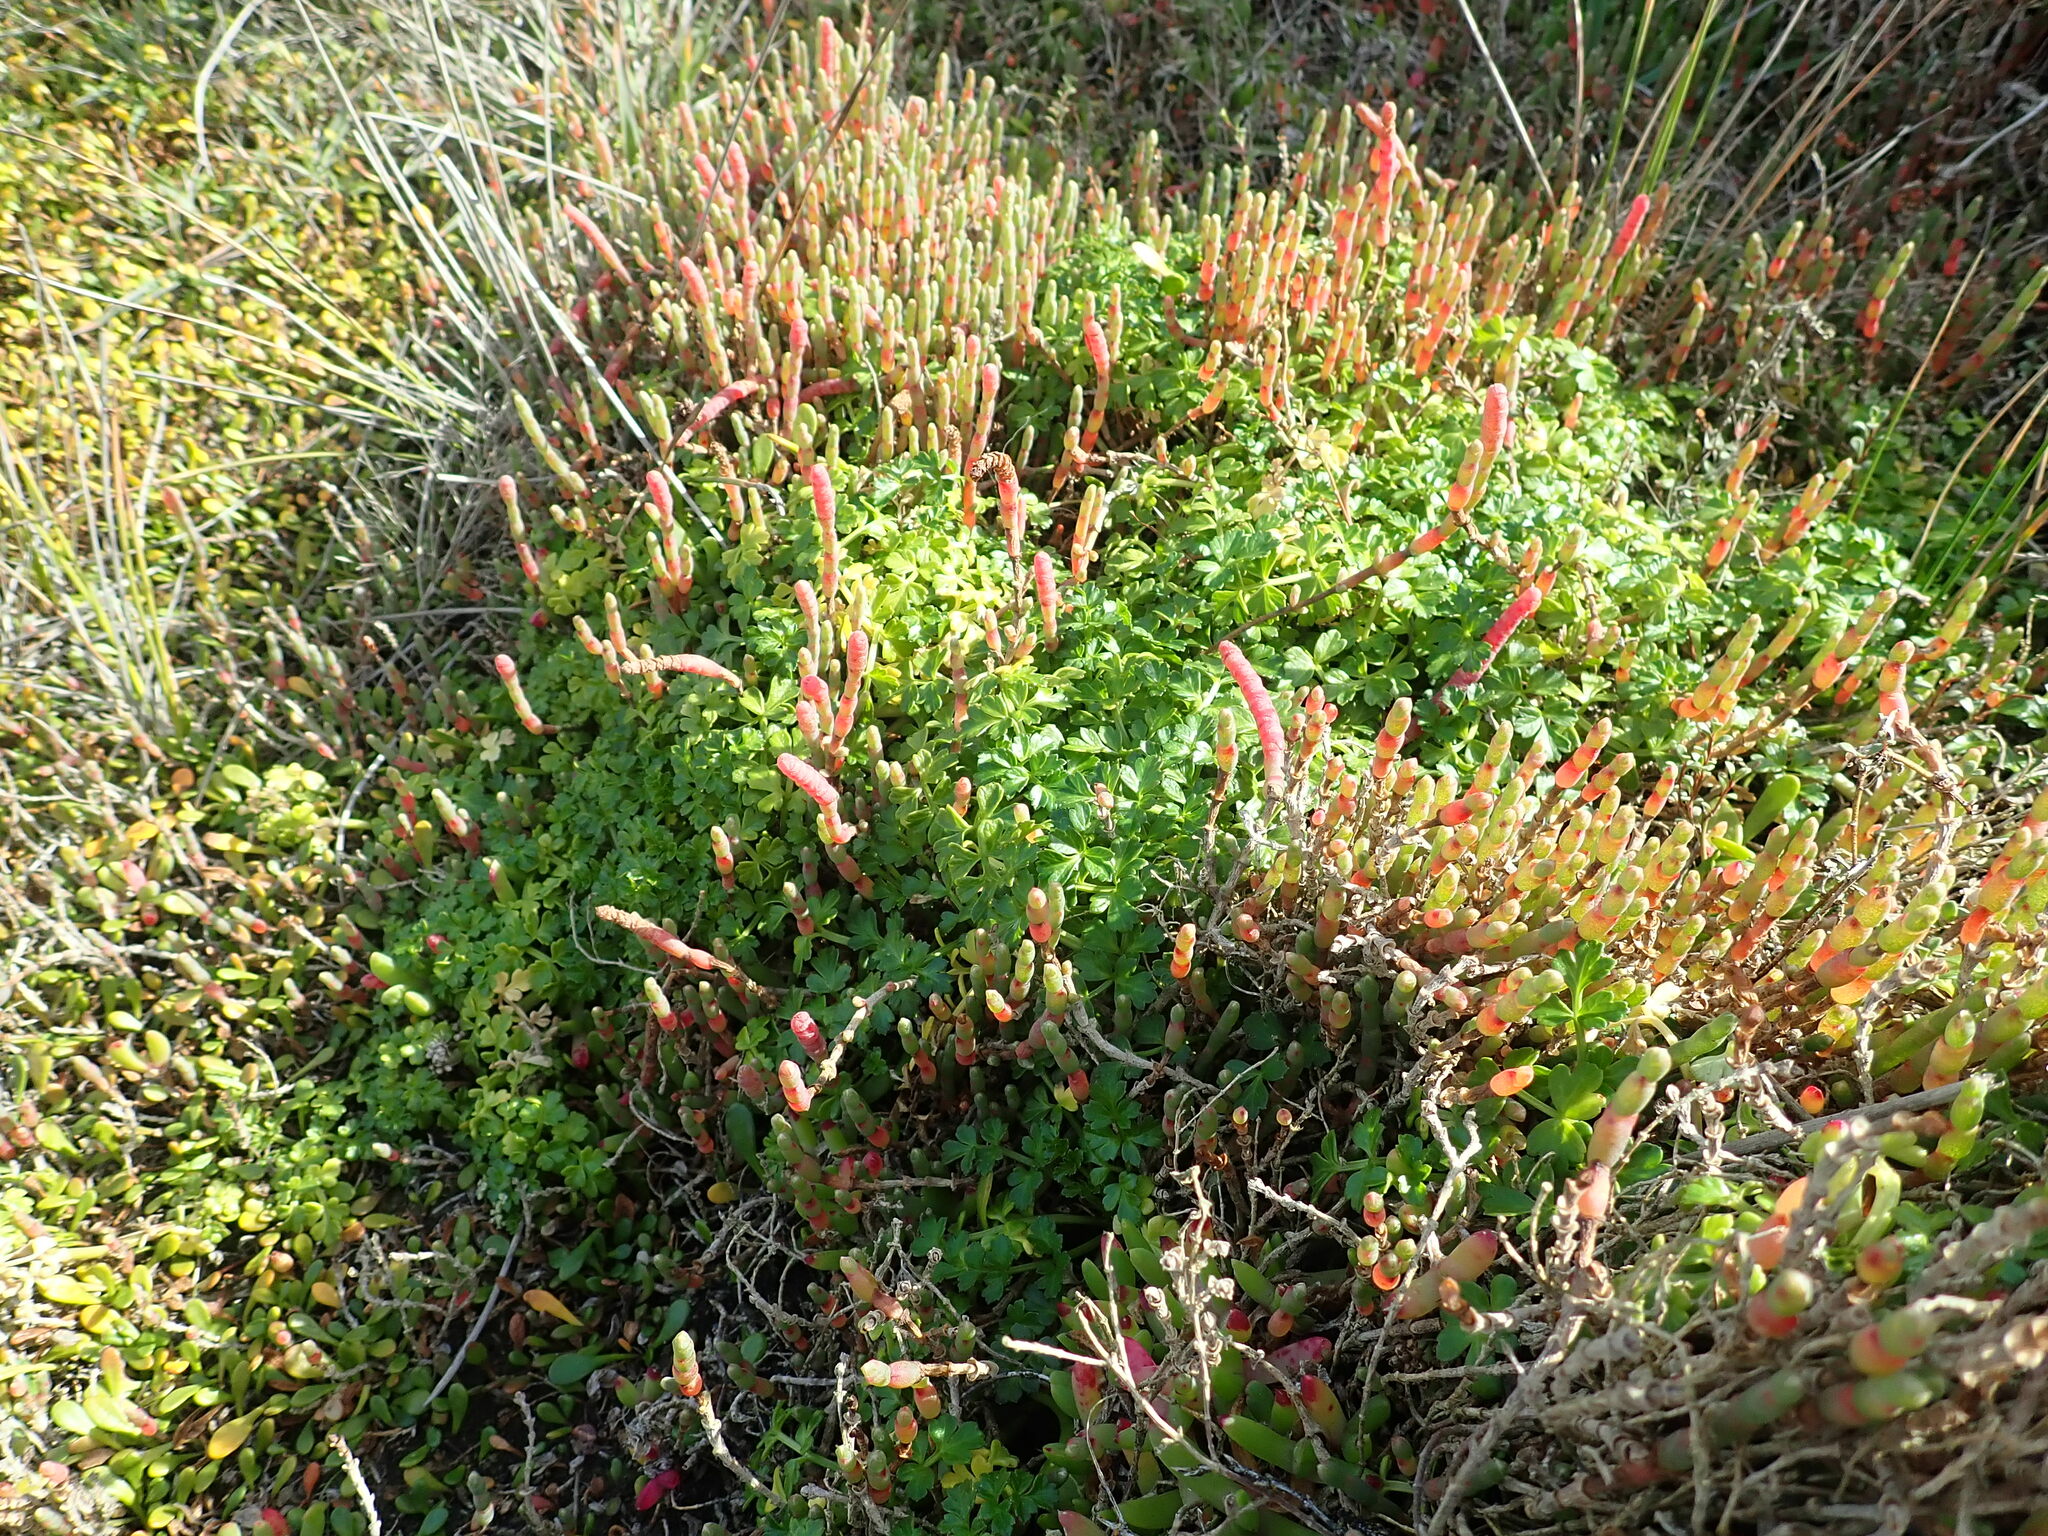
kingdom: Plantae
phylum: Tracheophyta
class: Magnoliopsida
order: Apiales
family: Apiaceae
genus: Apium
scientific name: Apium prostratum
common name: Prostrate marshwort
